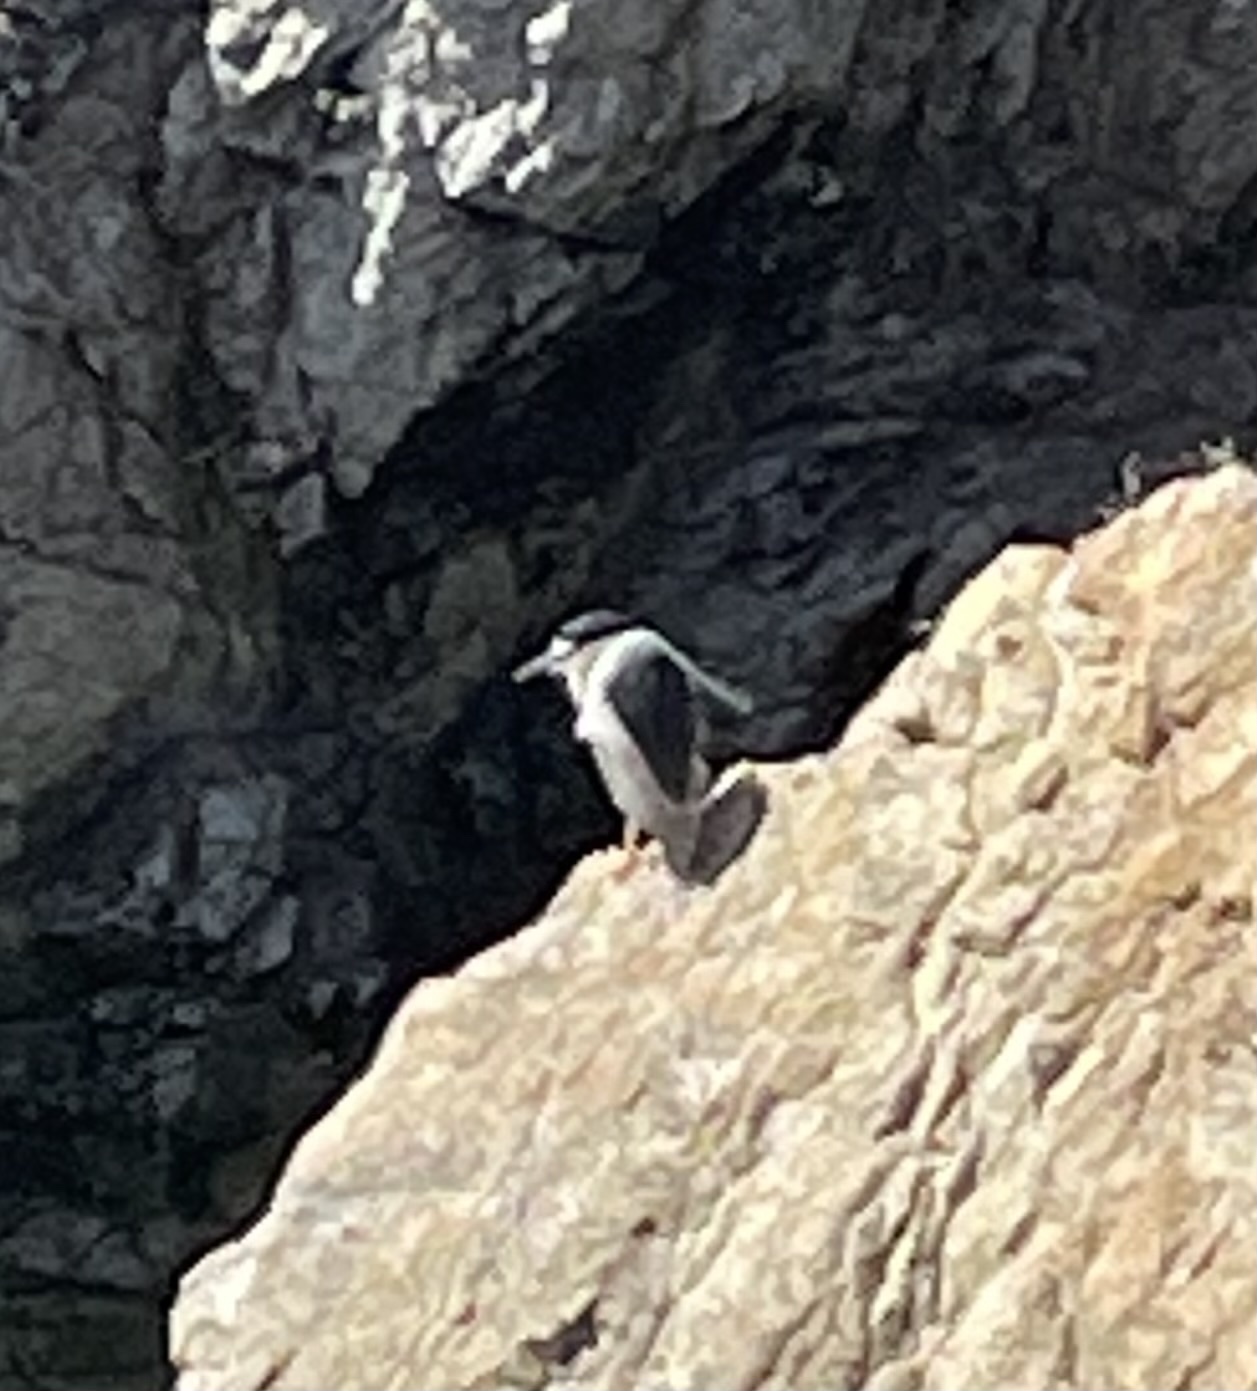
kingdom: Animalia
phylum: Chordata
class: Aves
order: Pelecaniformes
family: Ardeidae
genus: Nycticorax
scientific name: Nycticorax nycticorax
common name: Black-crowned night heron
